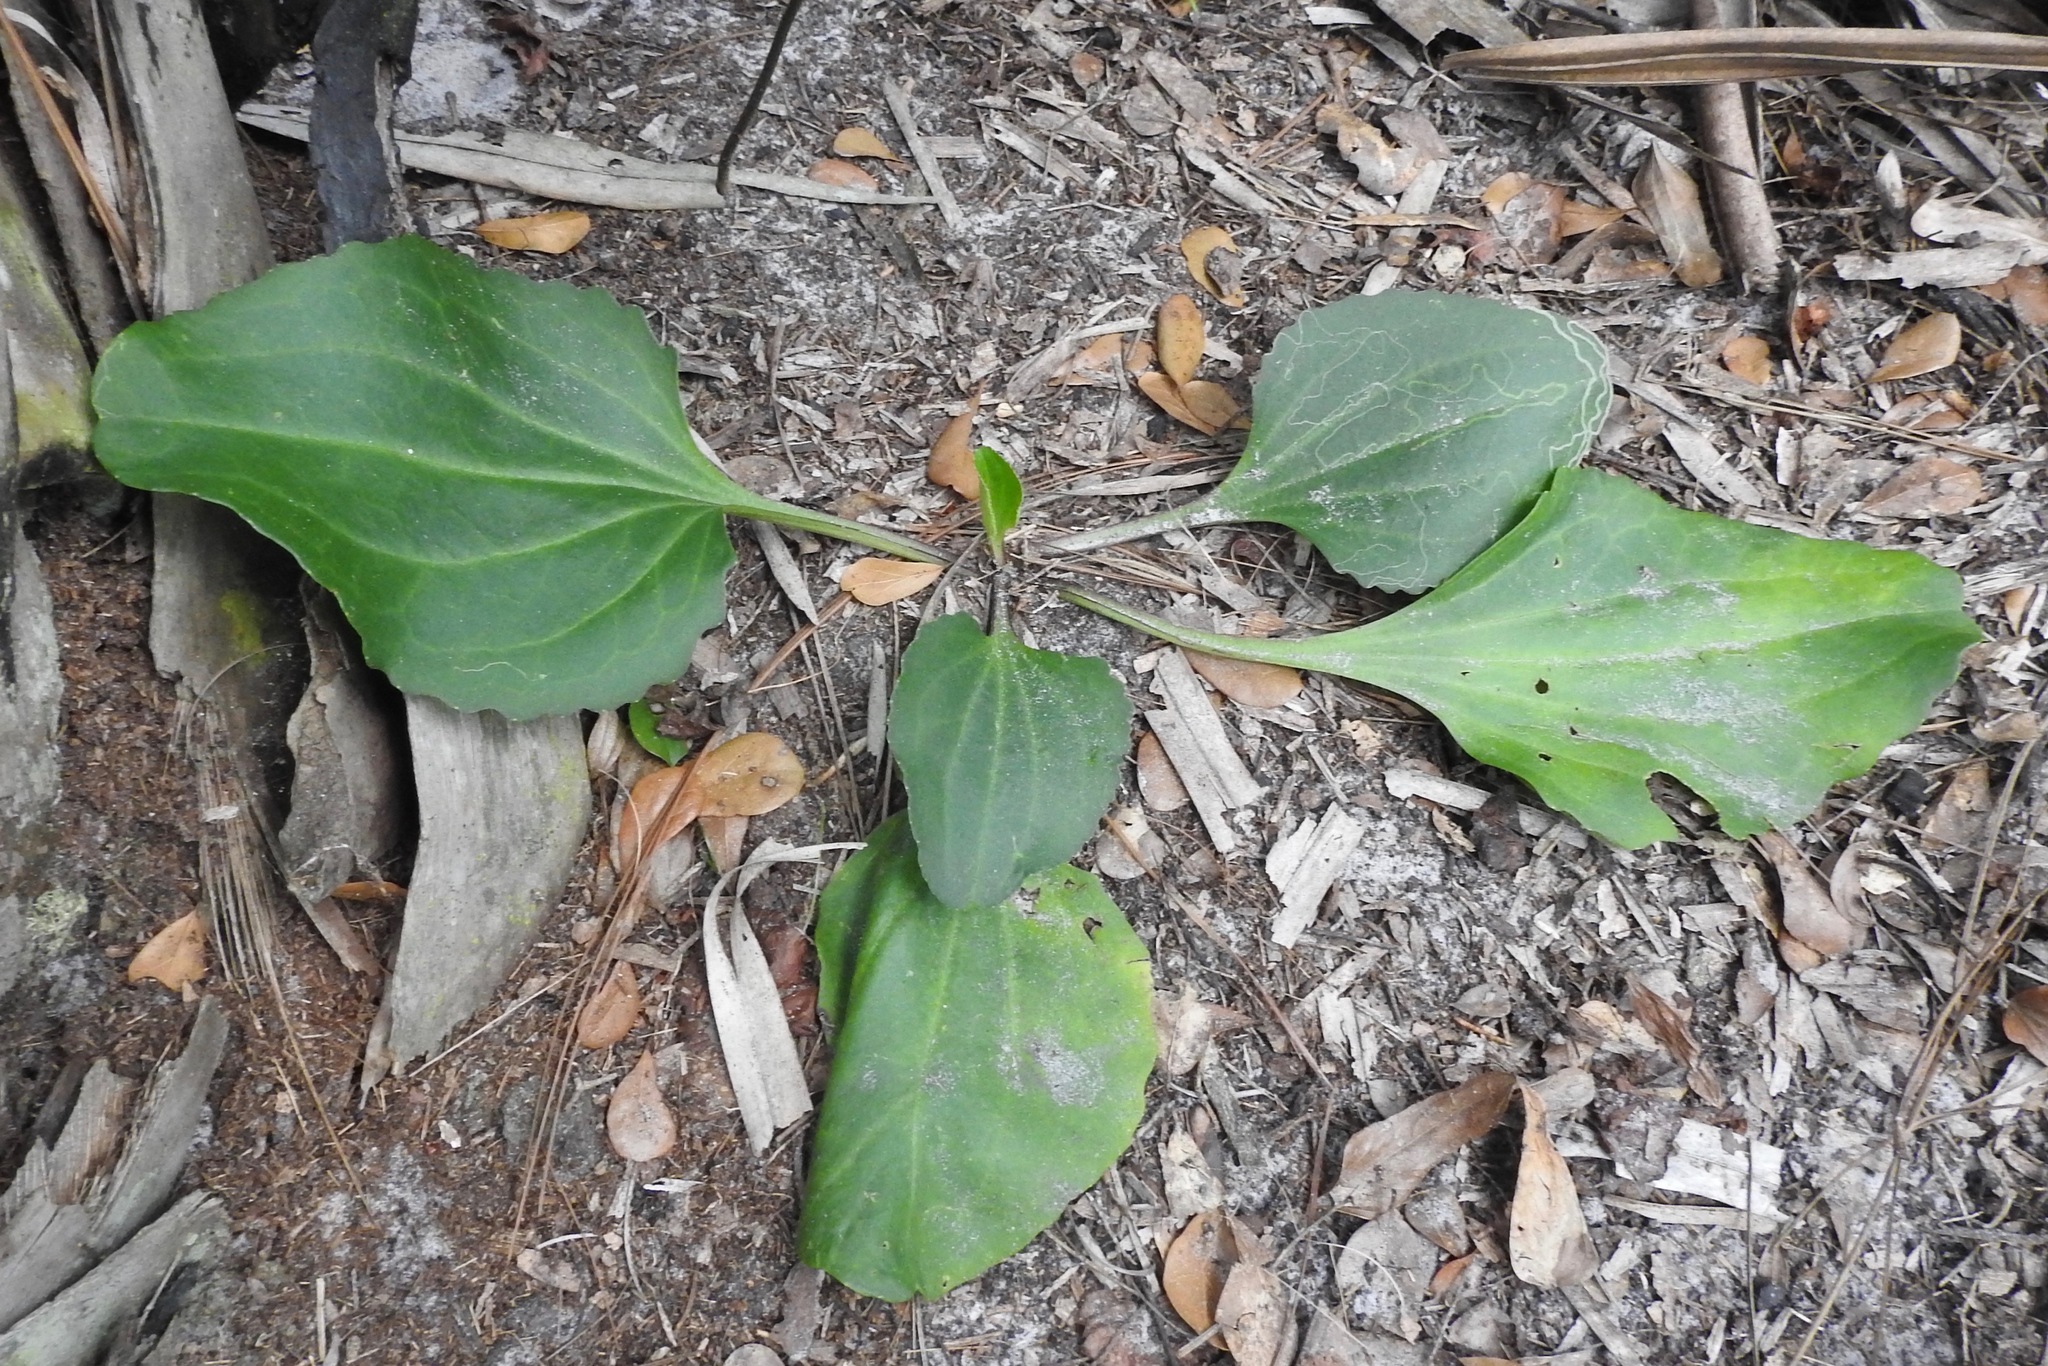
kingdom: Plantae
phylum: Tracheophyta
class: Magnoliopsida
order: Asterales
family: Asteraceae
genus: Arnoglossum
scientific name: Arnoglossum floridanum
